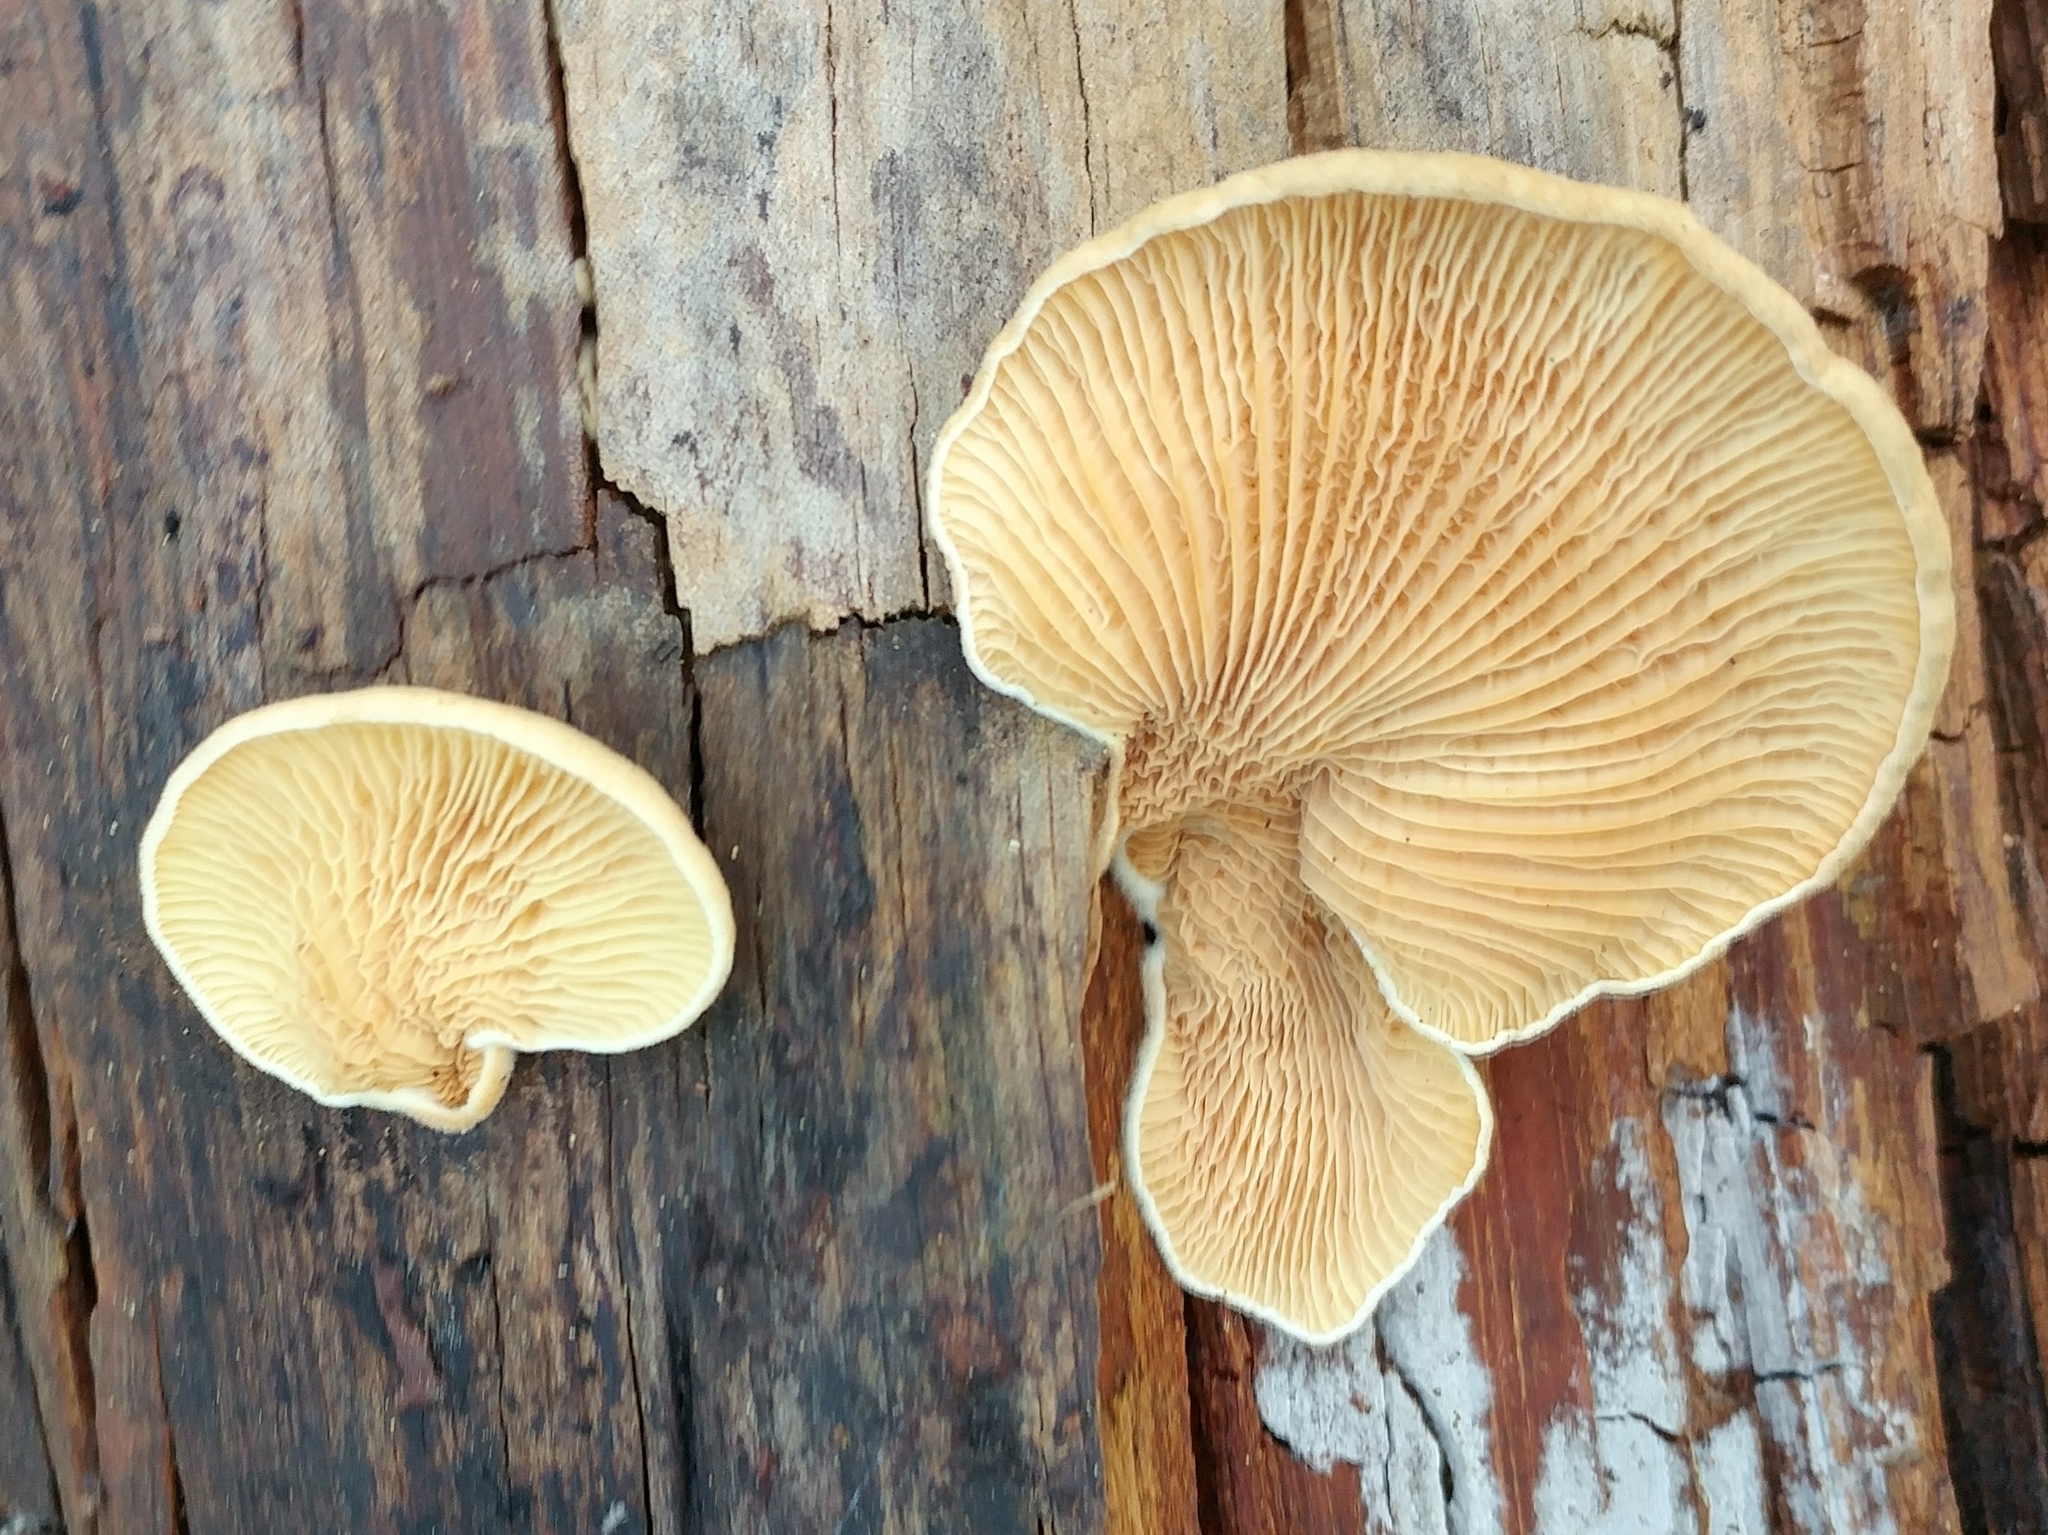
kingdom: Fungi
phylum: Basidiomycota
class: Agaricomycetes
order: Boletales
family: Tapinellaceae
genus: Tapinella
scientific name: Tapinella panuoides
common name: Oyster rollrim
